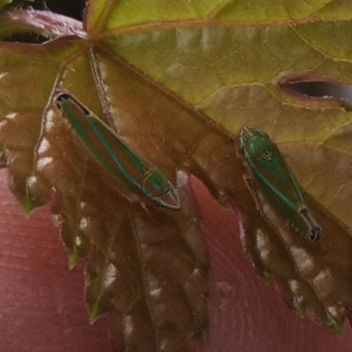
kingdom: Animalia
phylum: Arthropoda
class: Insecta
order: Hemiptera
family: Cicadellidae
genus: Graphocephala
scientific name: Graphocephala versuta
